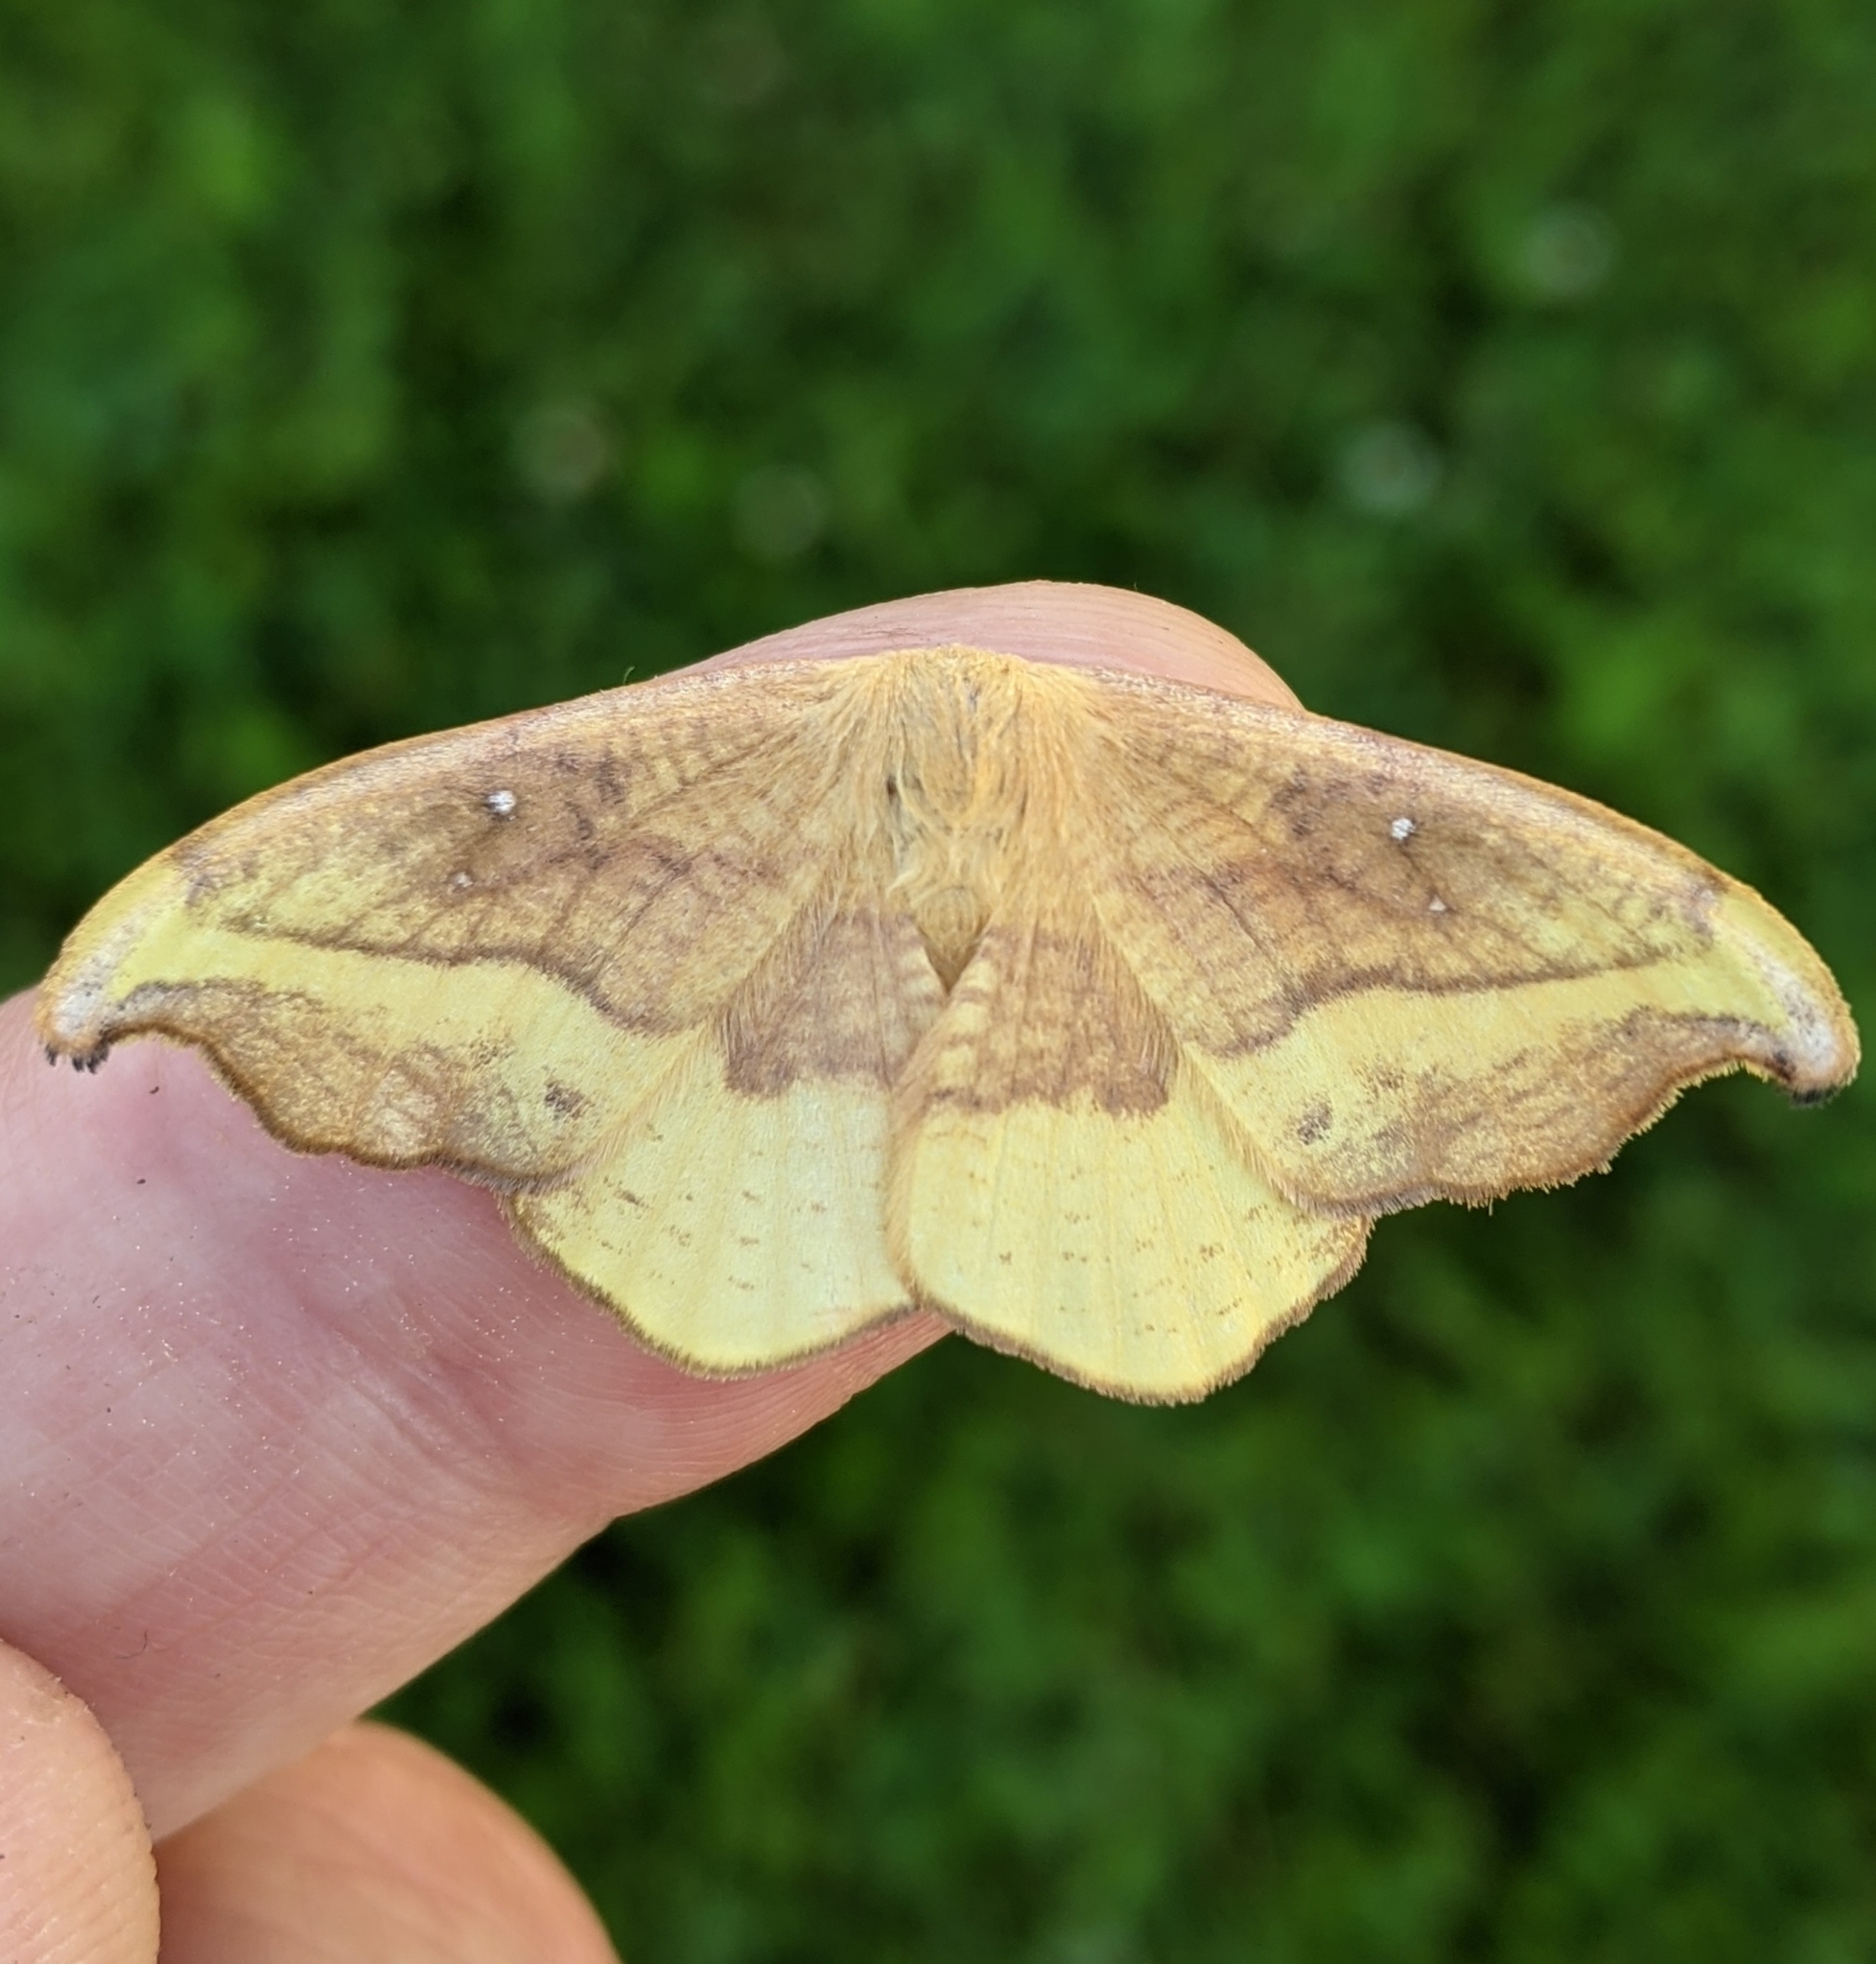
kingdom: Animalia
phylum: Arthropoda
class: Insecta
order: Lepidoptera
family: Drepanidae
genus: Oreta
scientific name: Oreta rosea
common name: Rose hooktip
